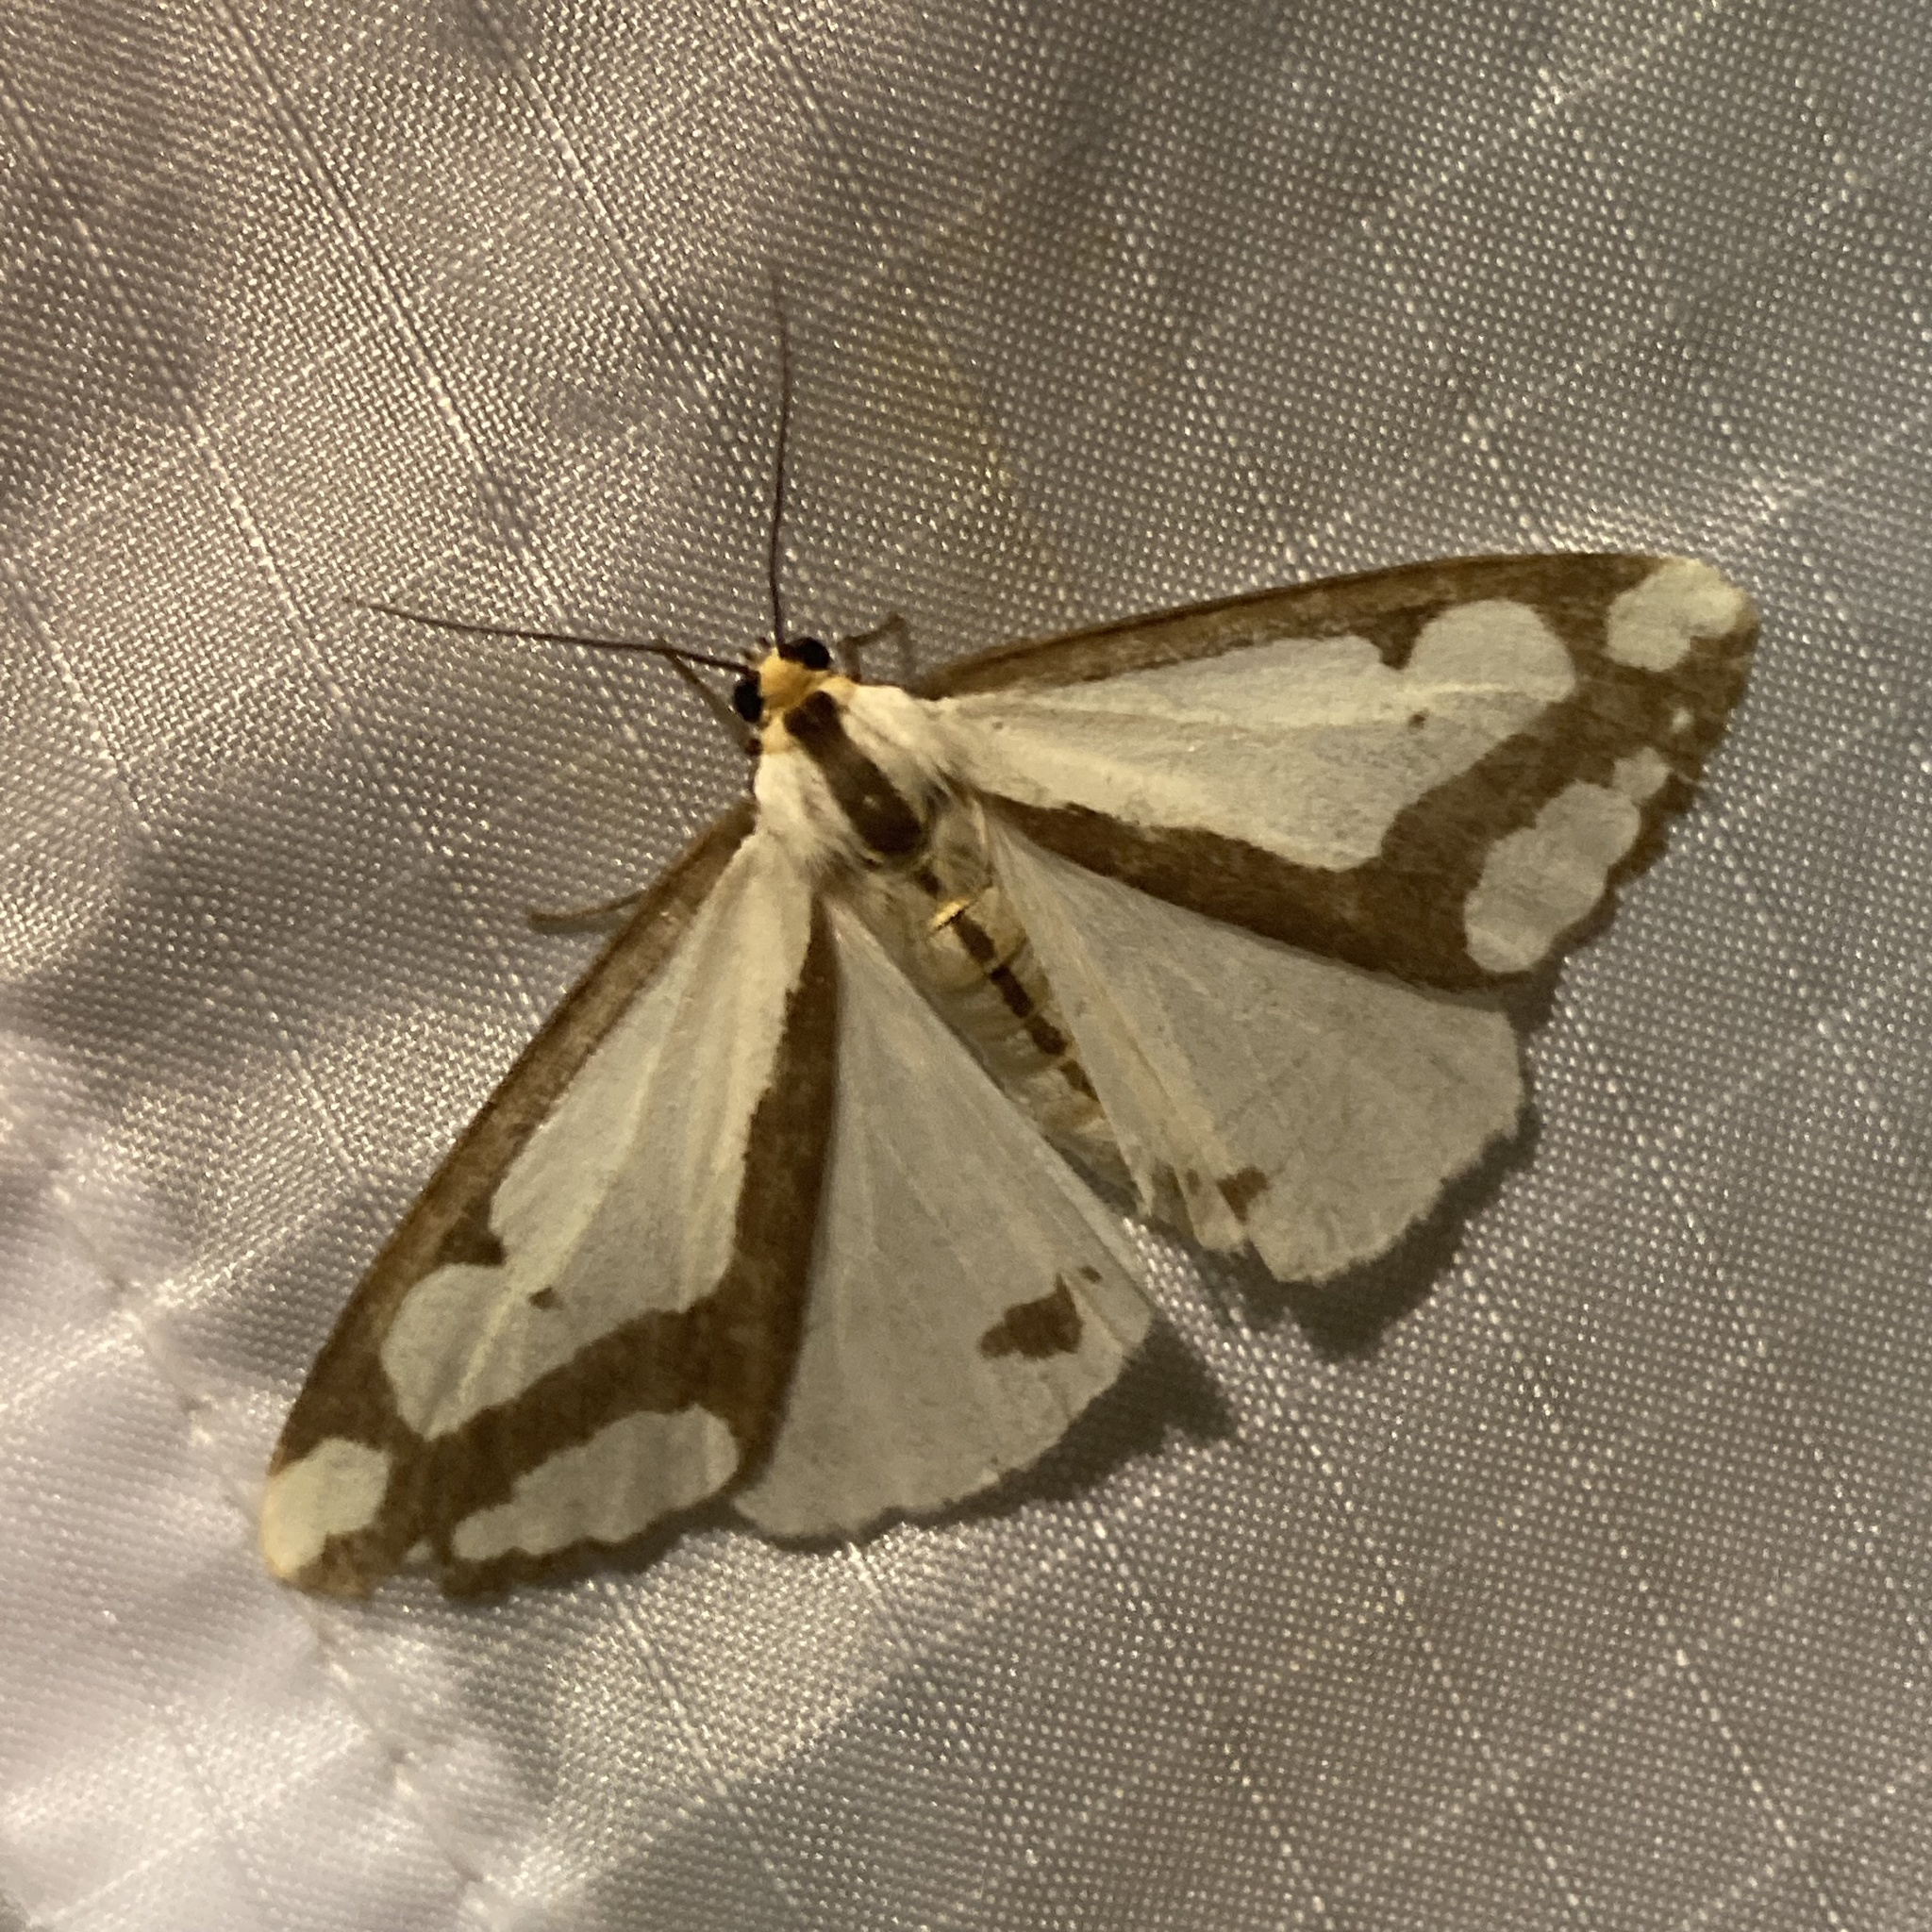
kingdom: Animalia
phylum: Arthropoda
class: Insecta
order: Lepidoptera
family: Erebidae
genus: Haploa
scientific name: Haploa lecontei
